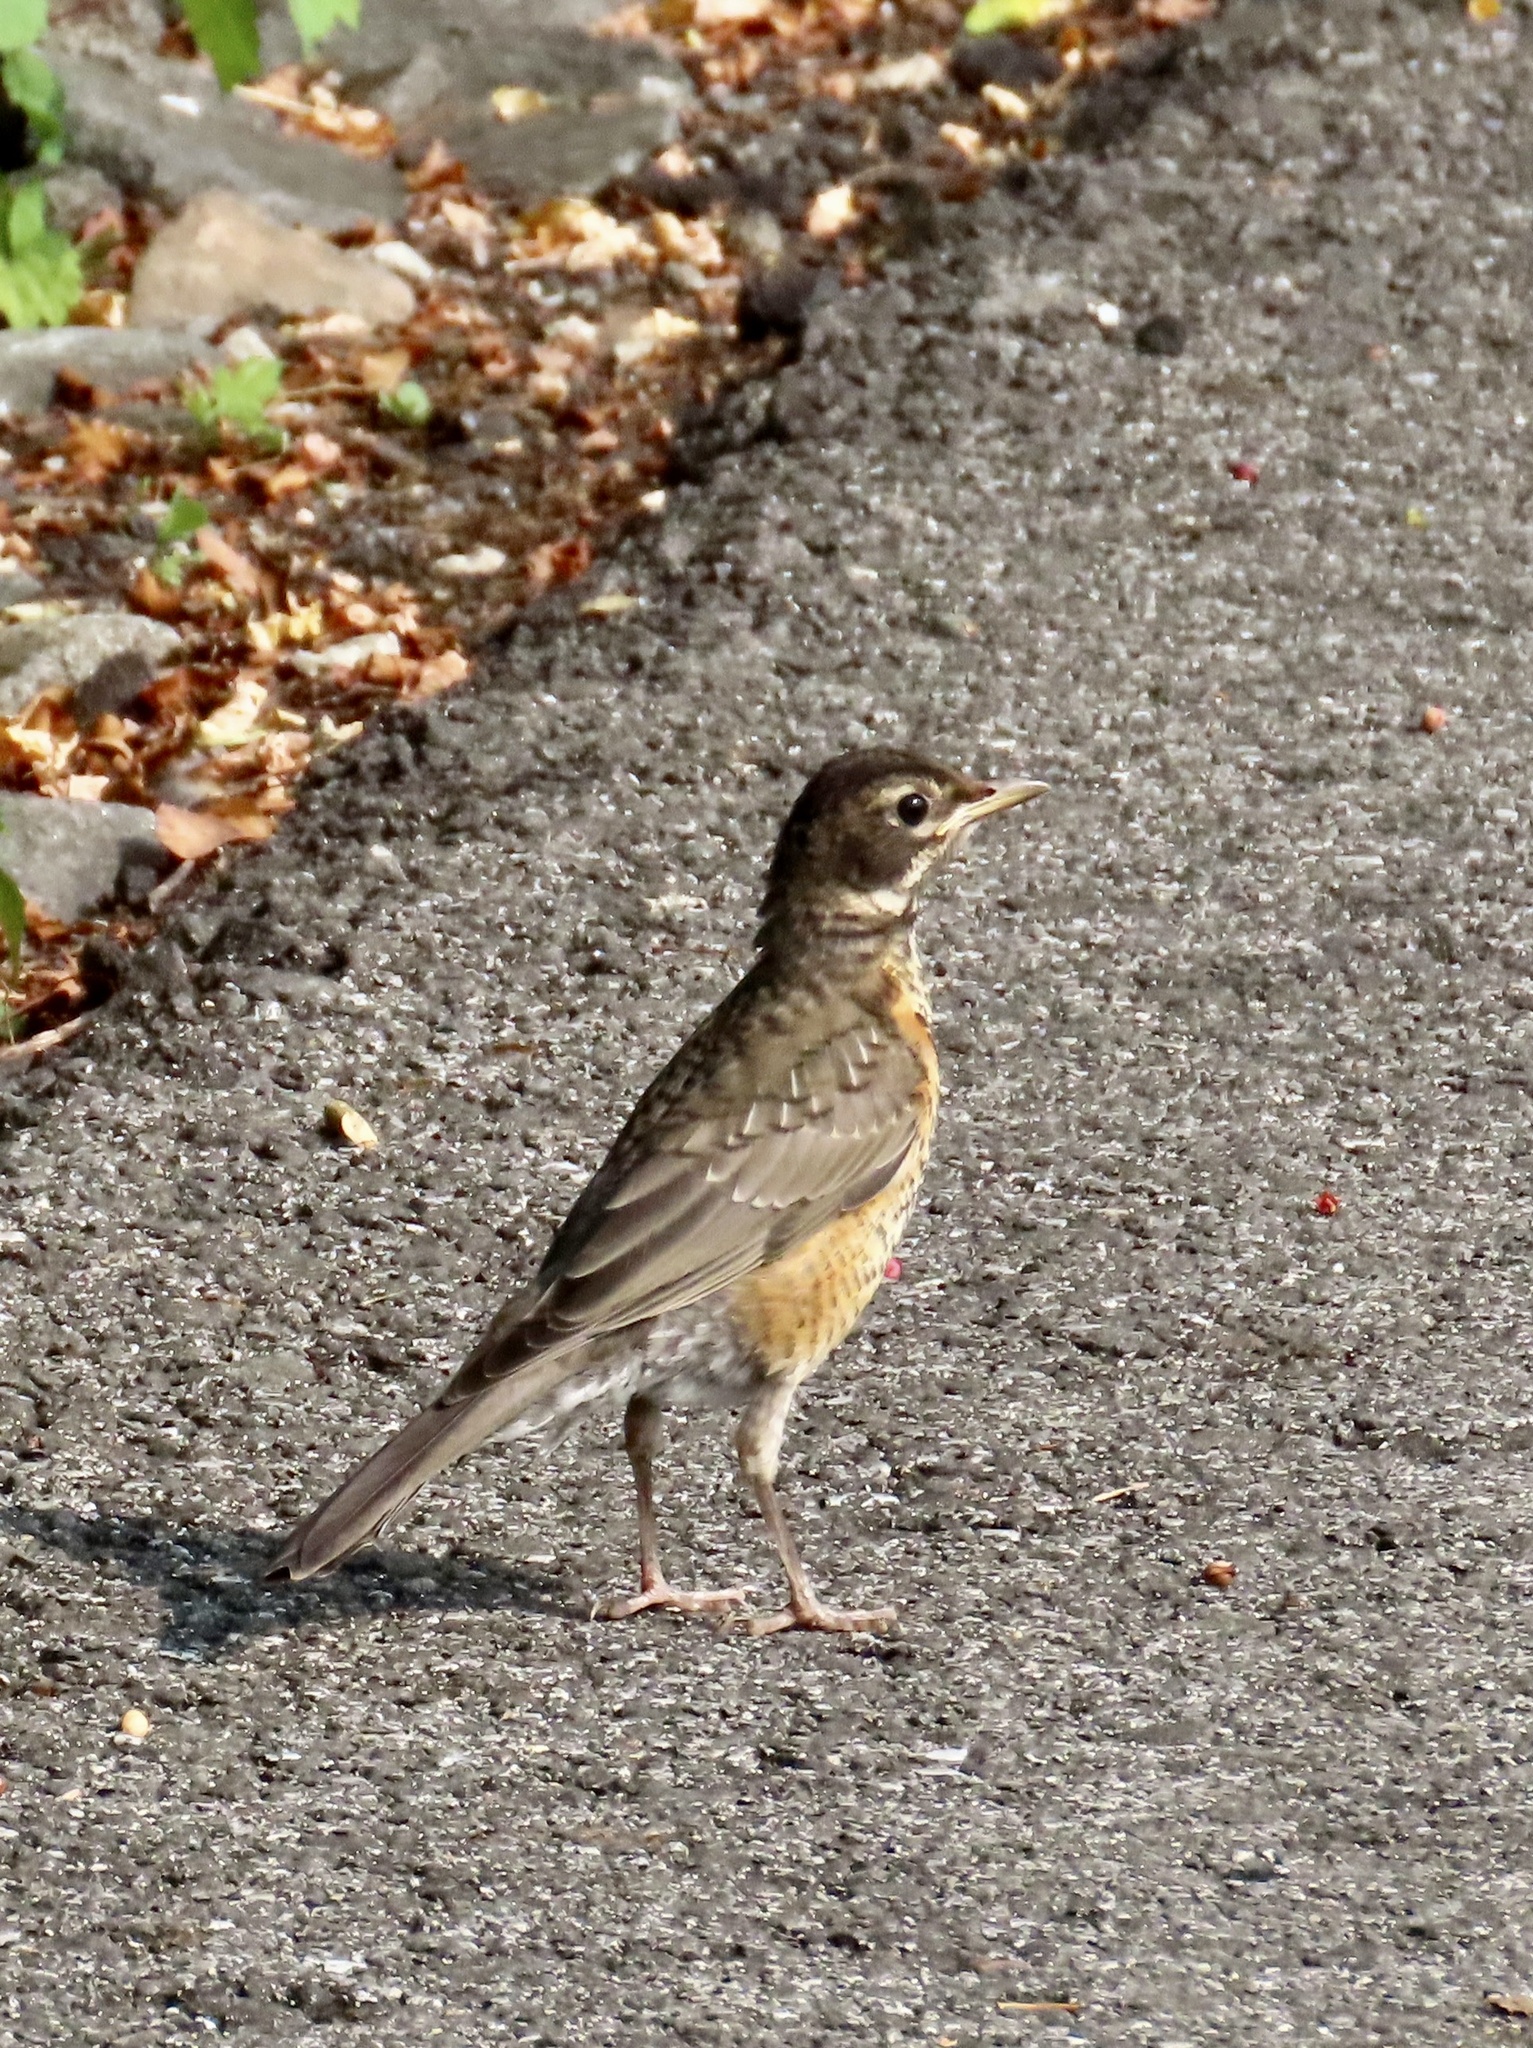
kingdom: Animalia
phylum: Chordata
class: Aves
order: Passeriformes
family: Turdidae
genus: Turdus
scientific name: Turdus migratorius
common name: American robin
